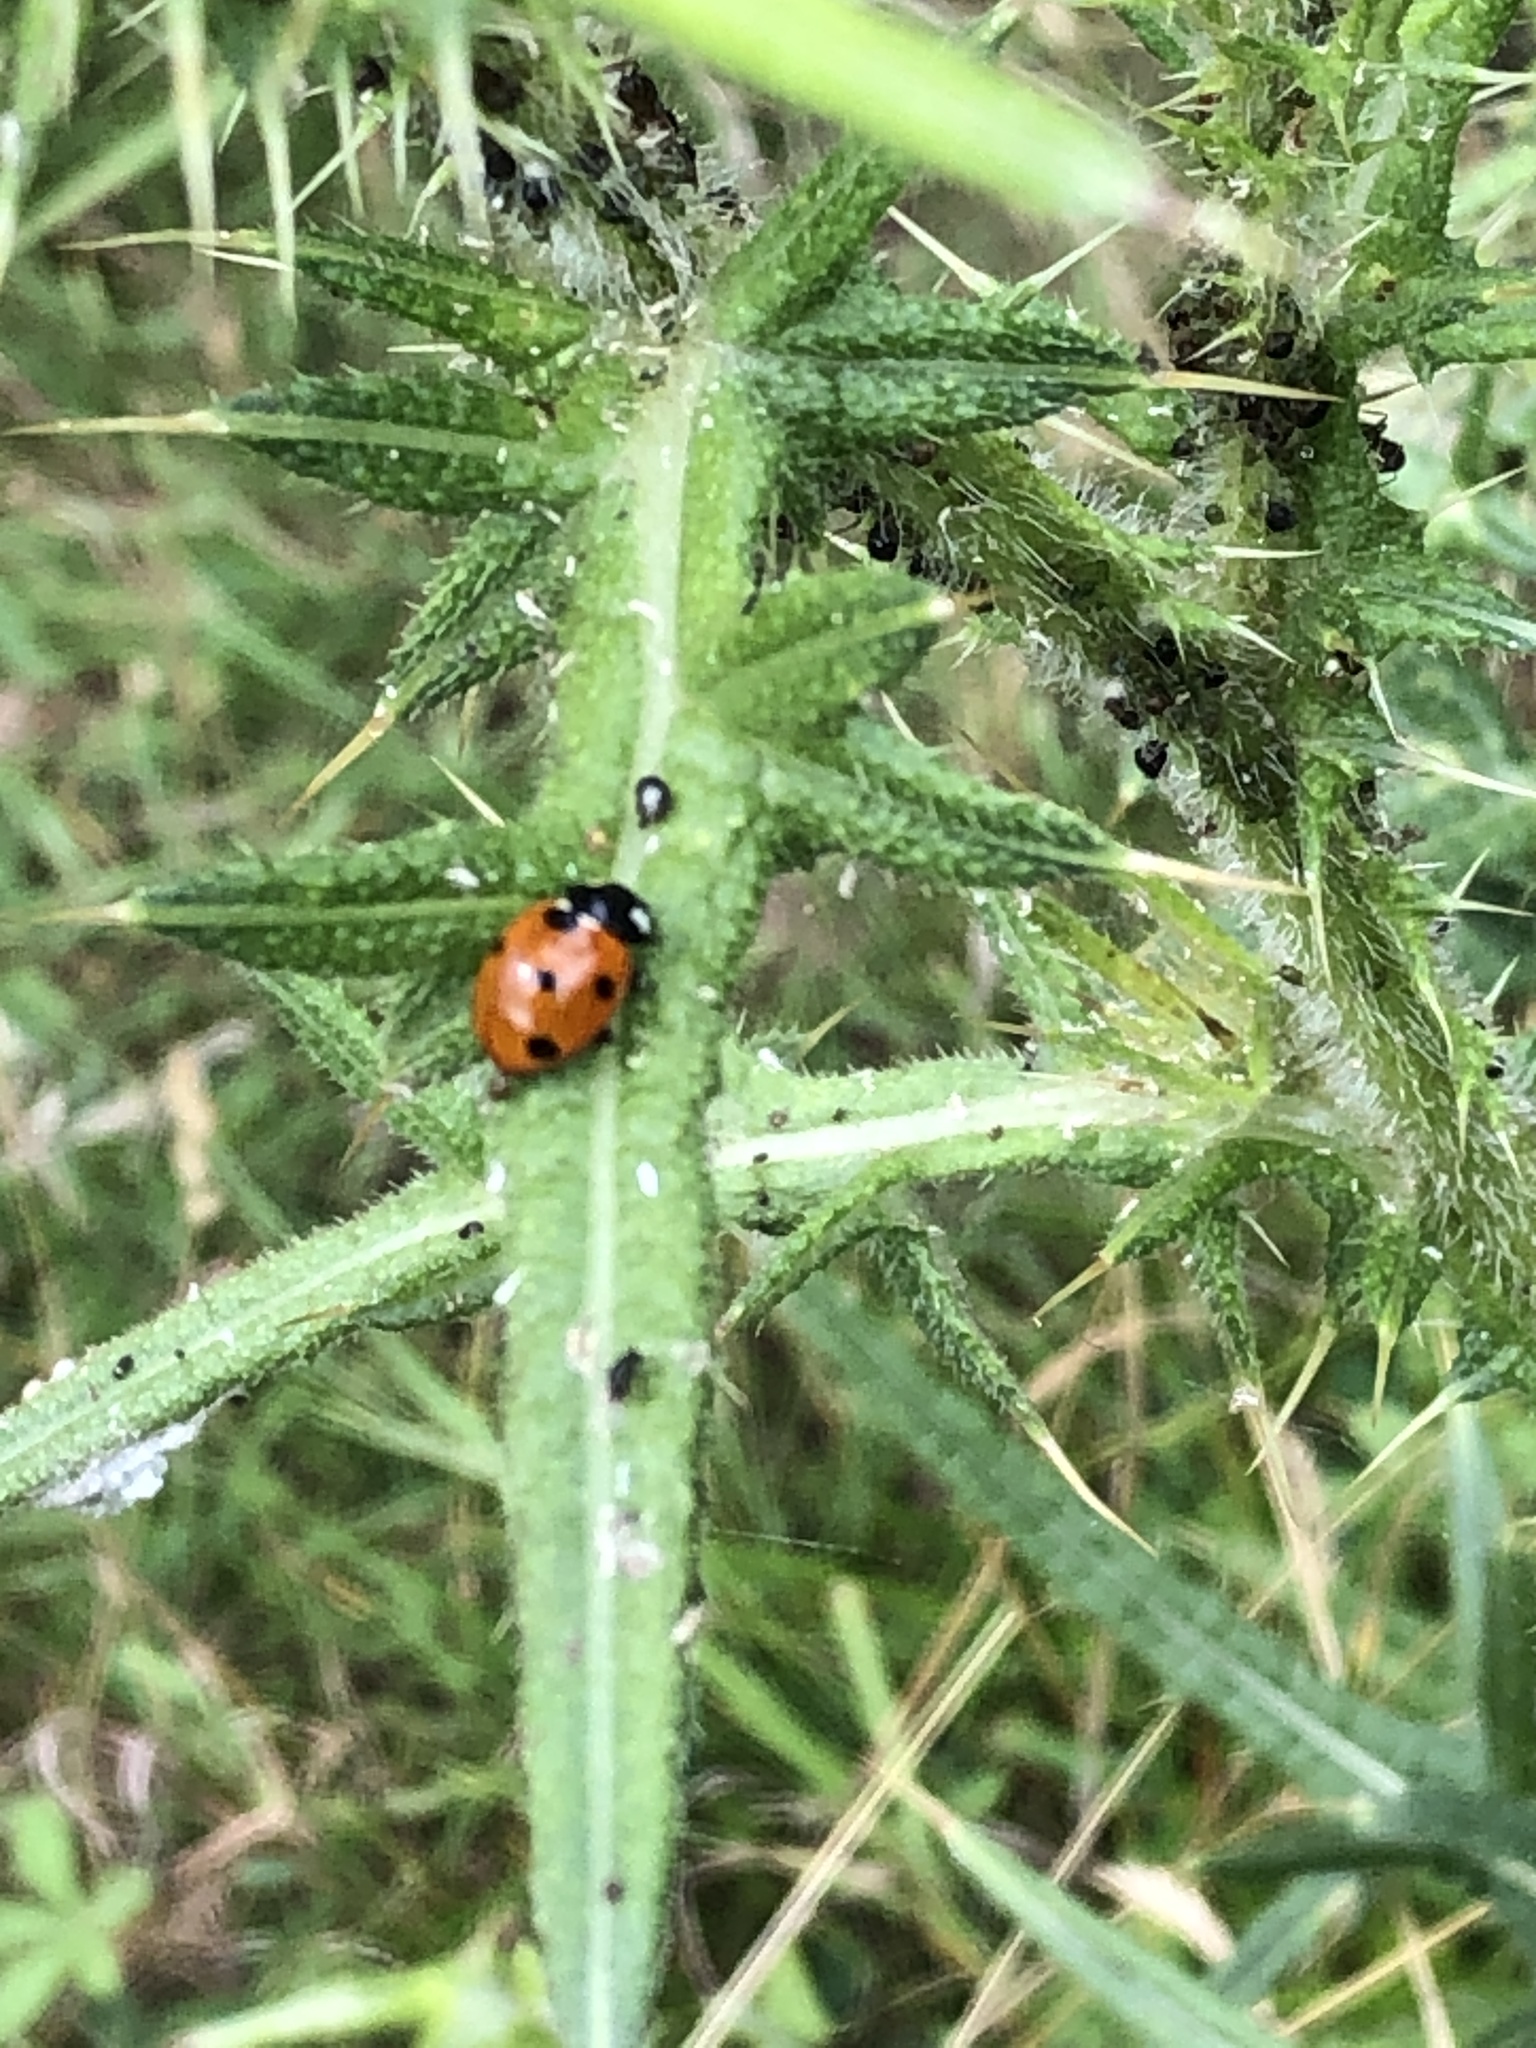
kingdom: Animalia
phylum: Arthropoda
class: Insecta
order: Coleoptera
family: Coccinellidae
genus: Coccinella
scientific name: Coccinella septempunctata
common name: Sevenspotted lady beetle
